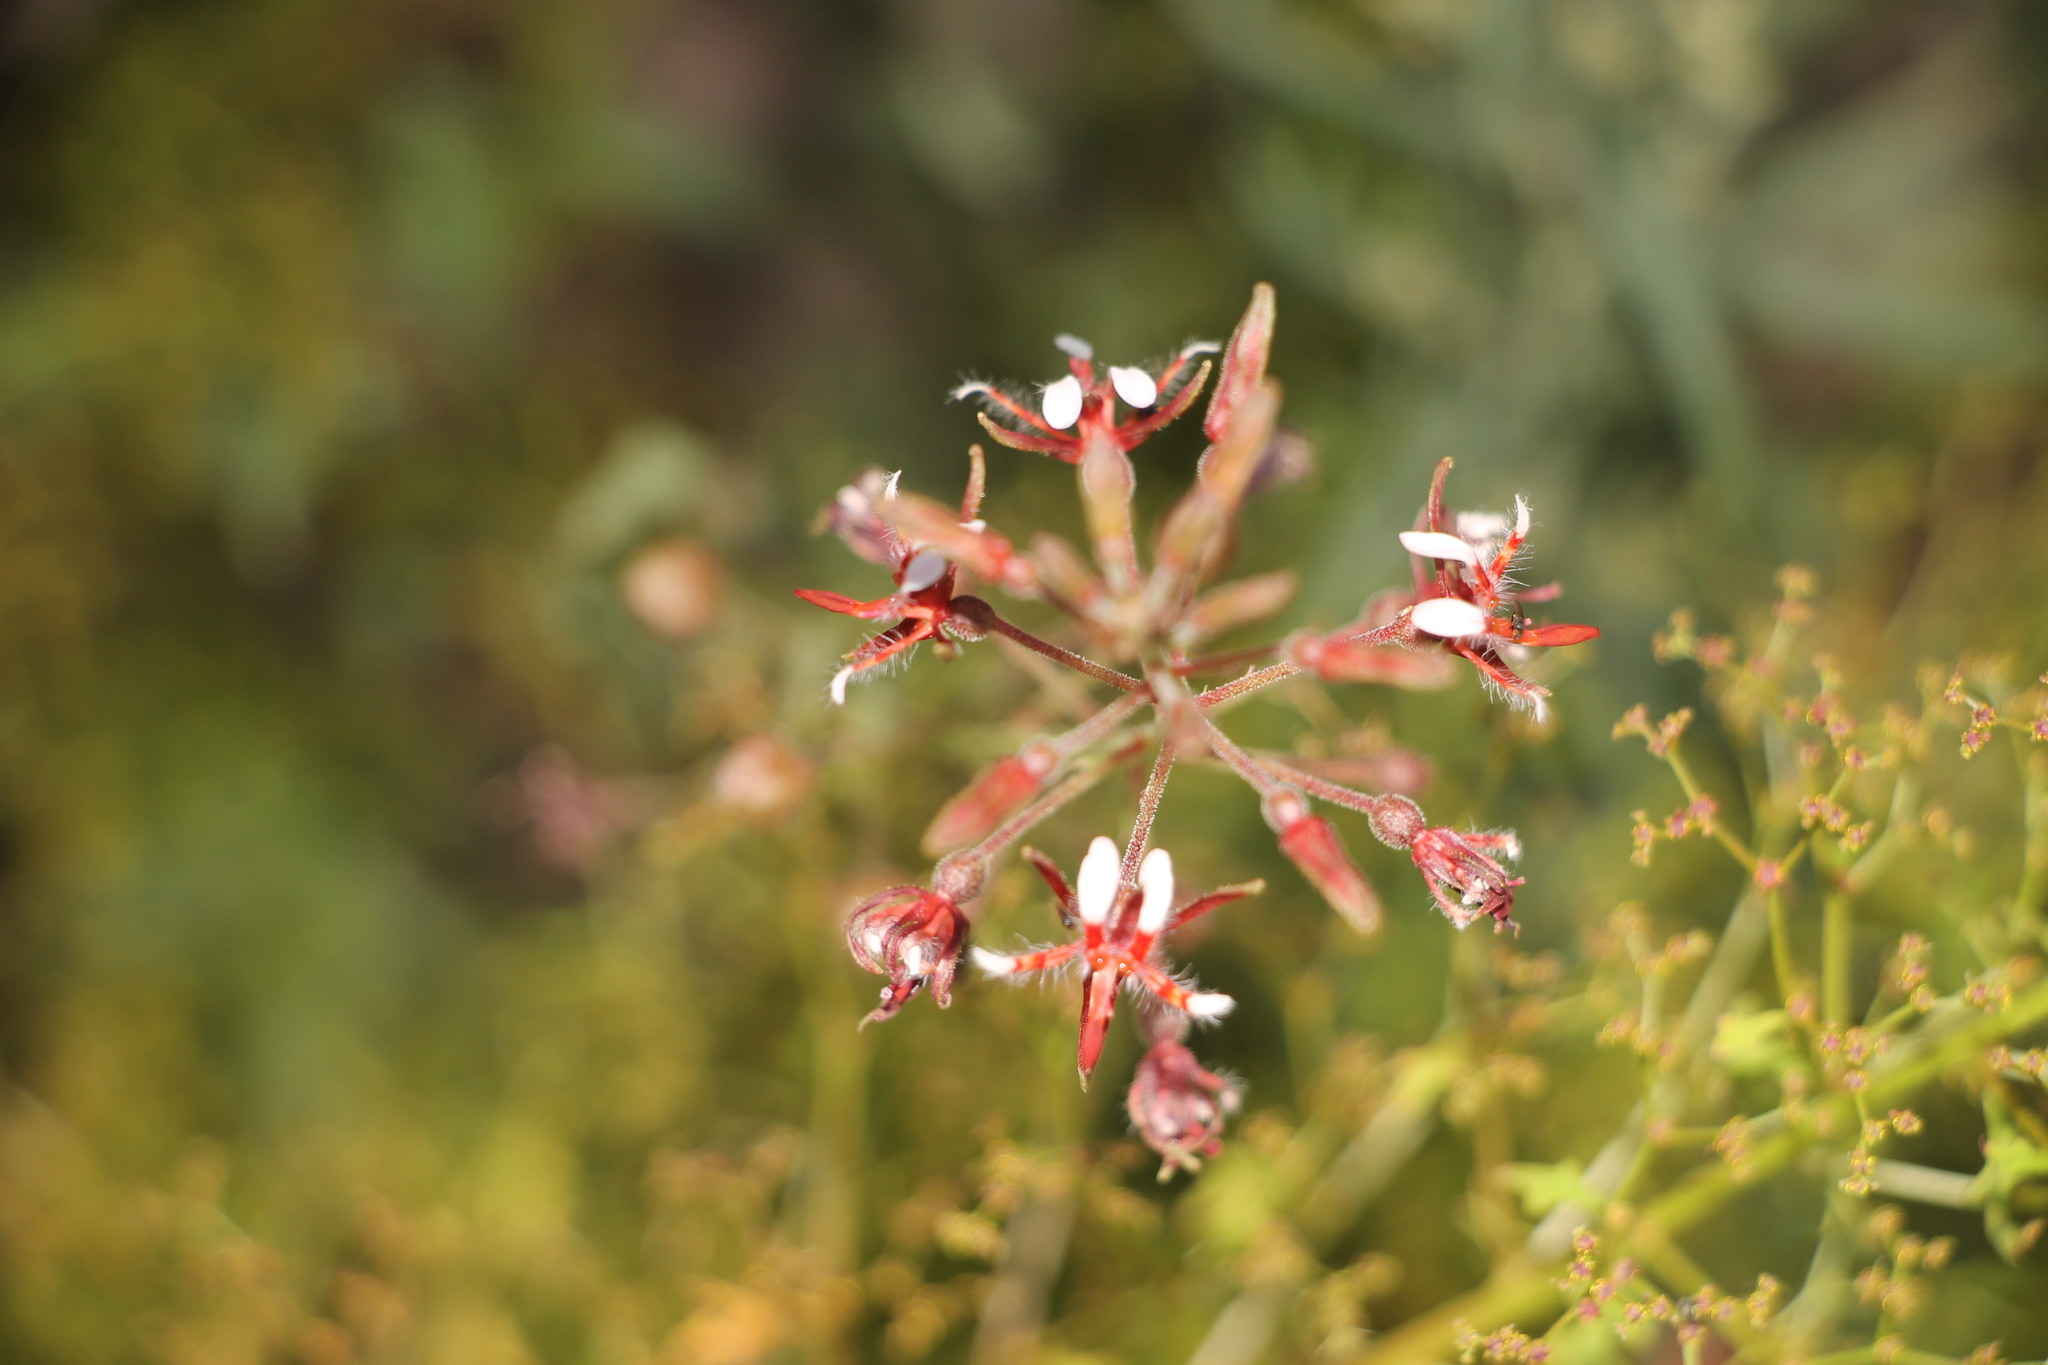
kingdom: Plantae
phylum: Tracheophyta
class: Magnoliopsida
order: Myrtales
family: Onagraceae
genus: Lopezia
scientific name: Lopezia trichota
